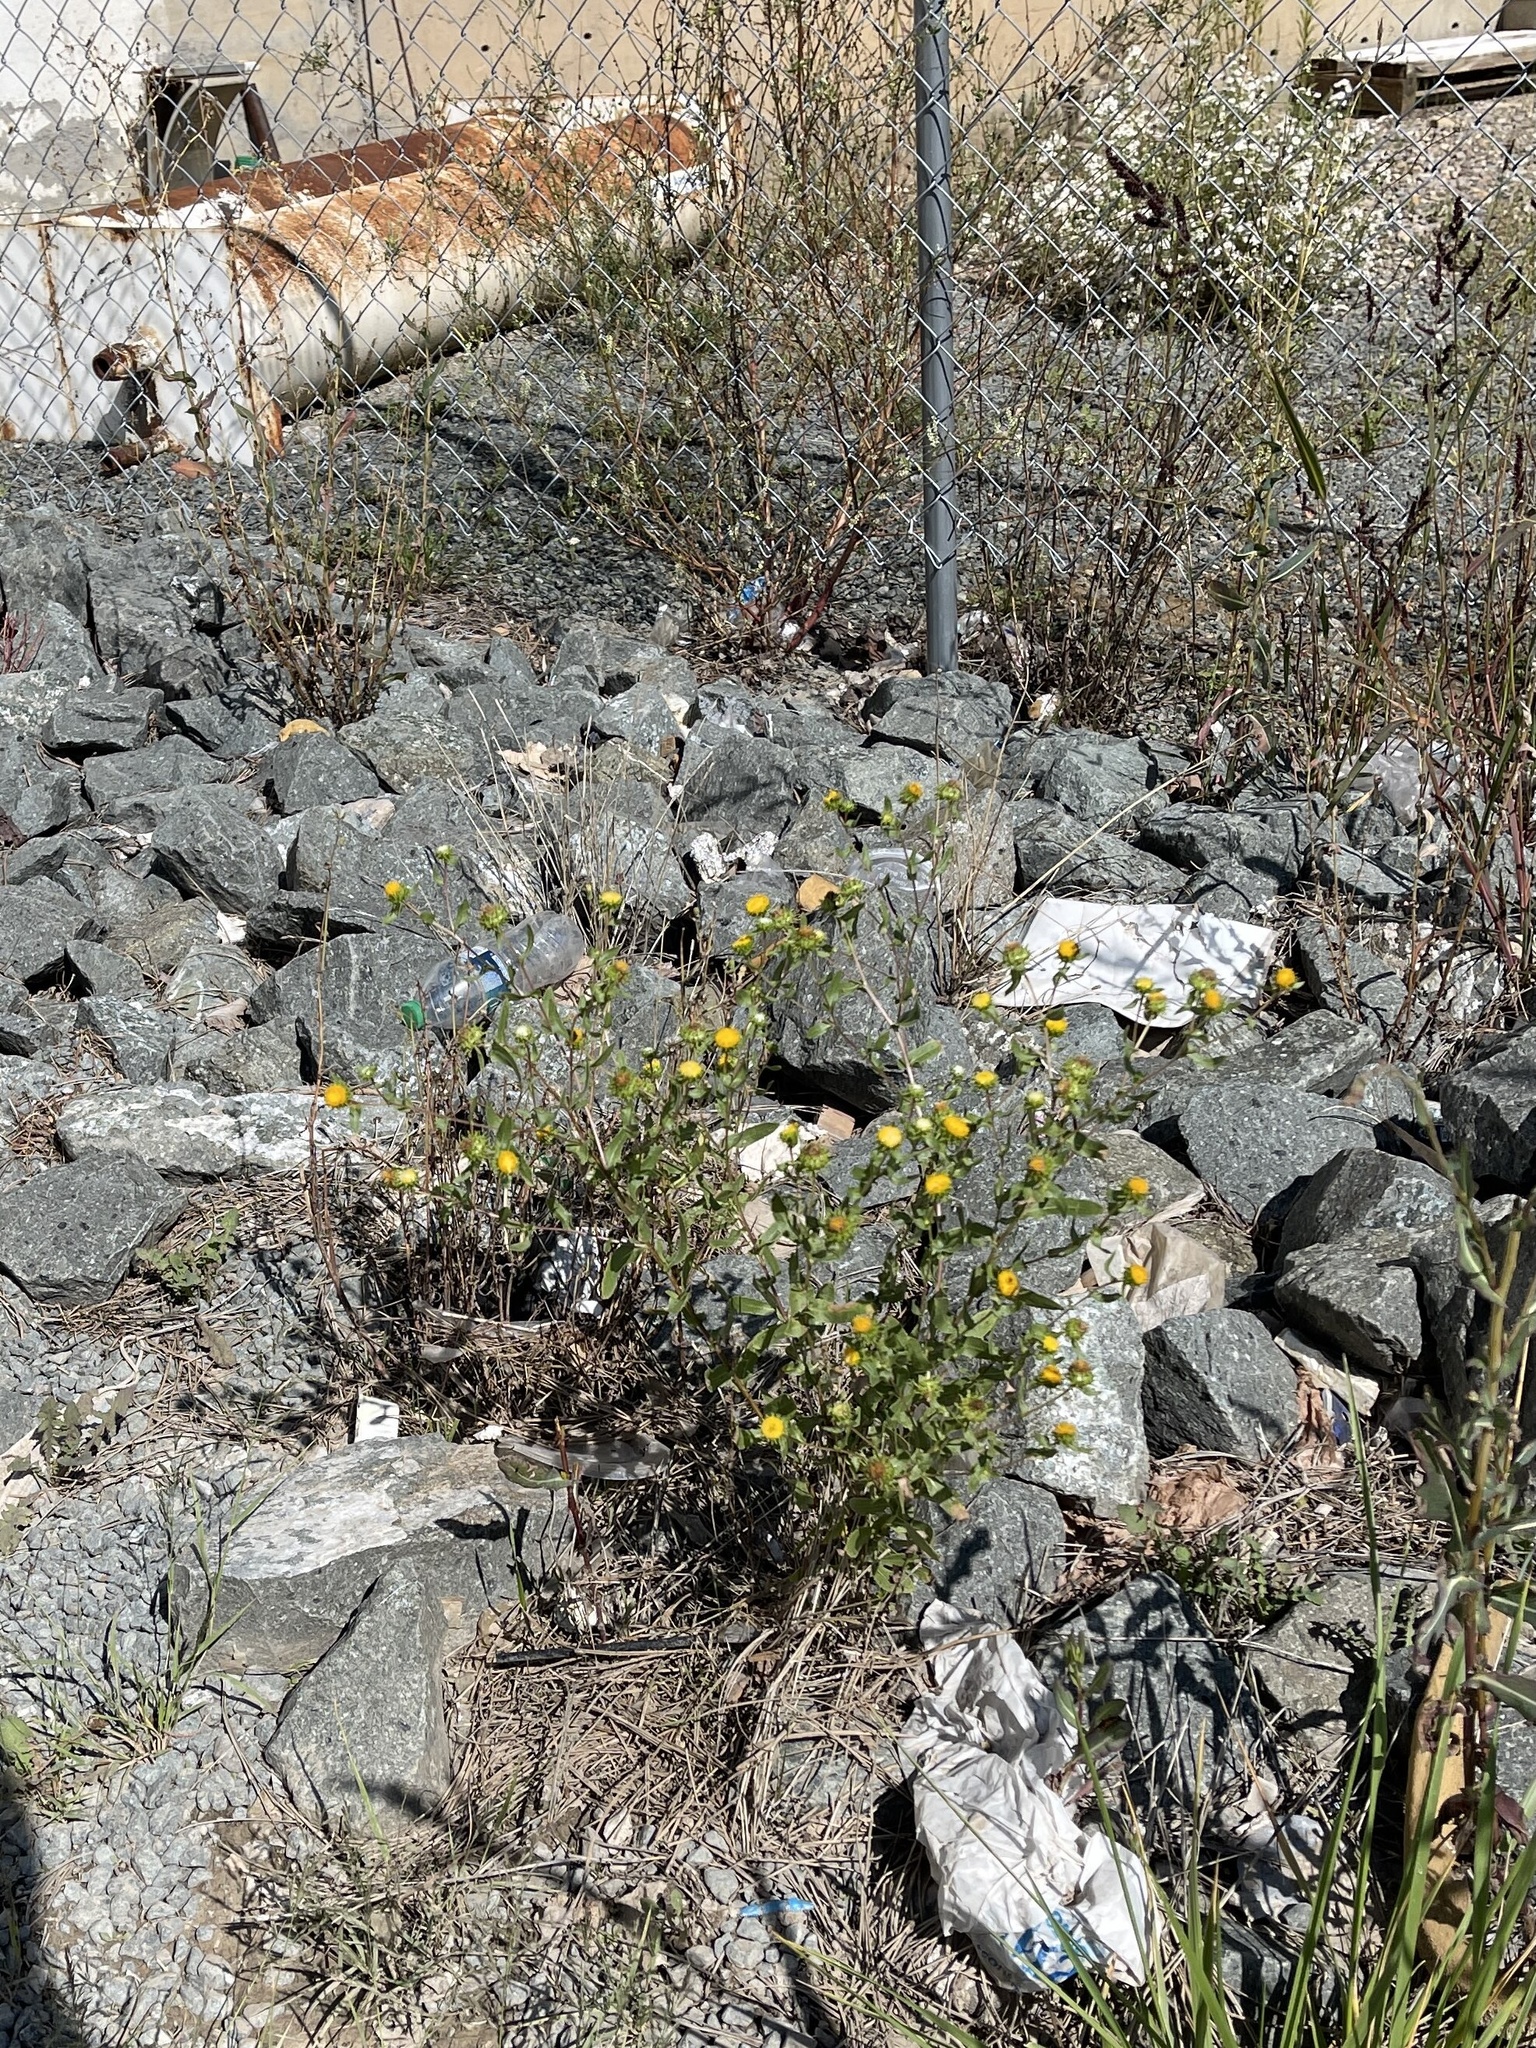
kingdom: Plantae
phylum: Tracheophyta
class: Magnoliopsida
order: Asterales
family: Asteraceae
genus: Grindelia
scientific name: Grindelia nuda
